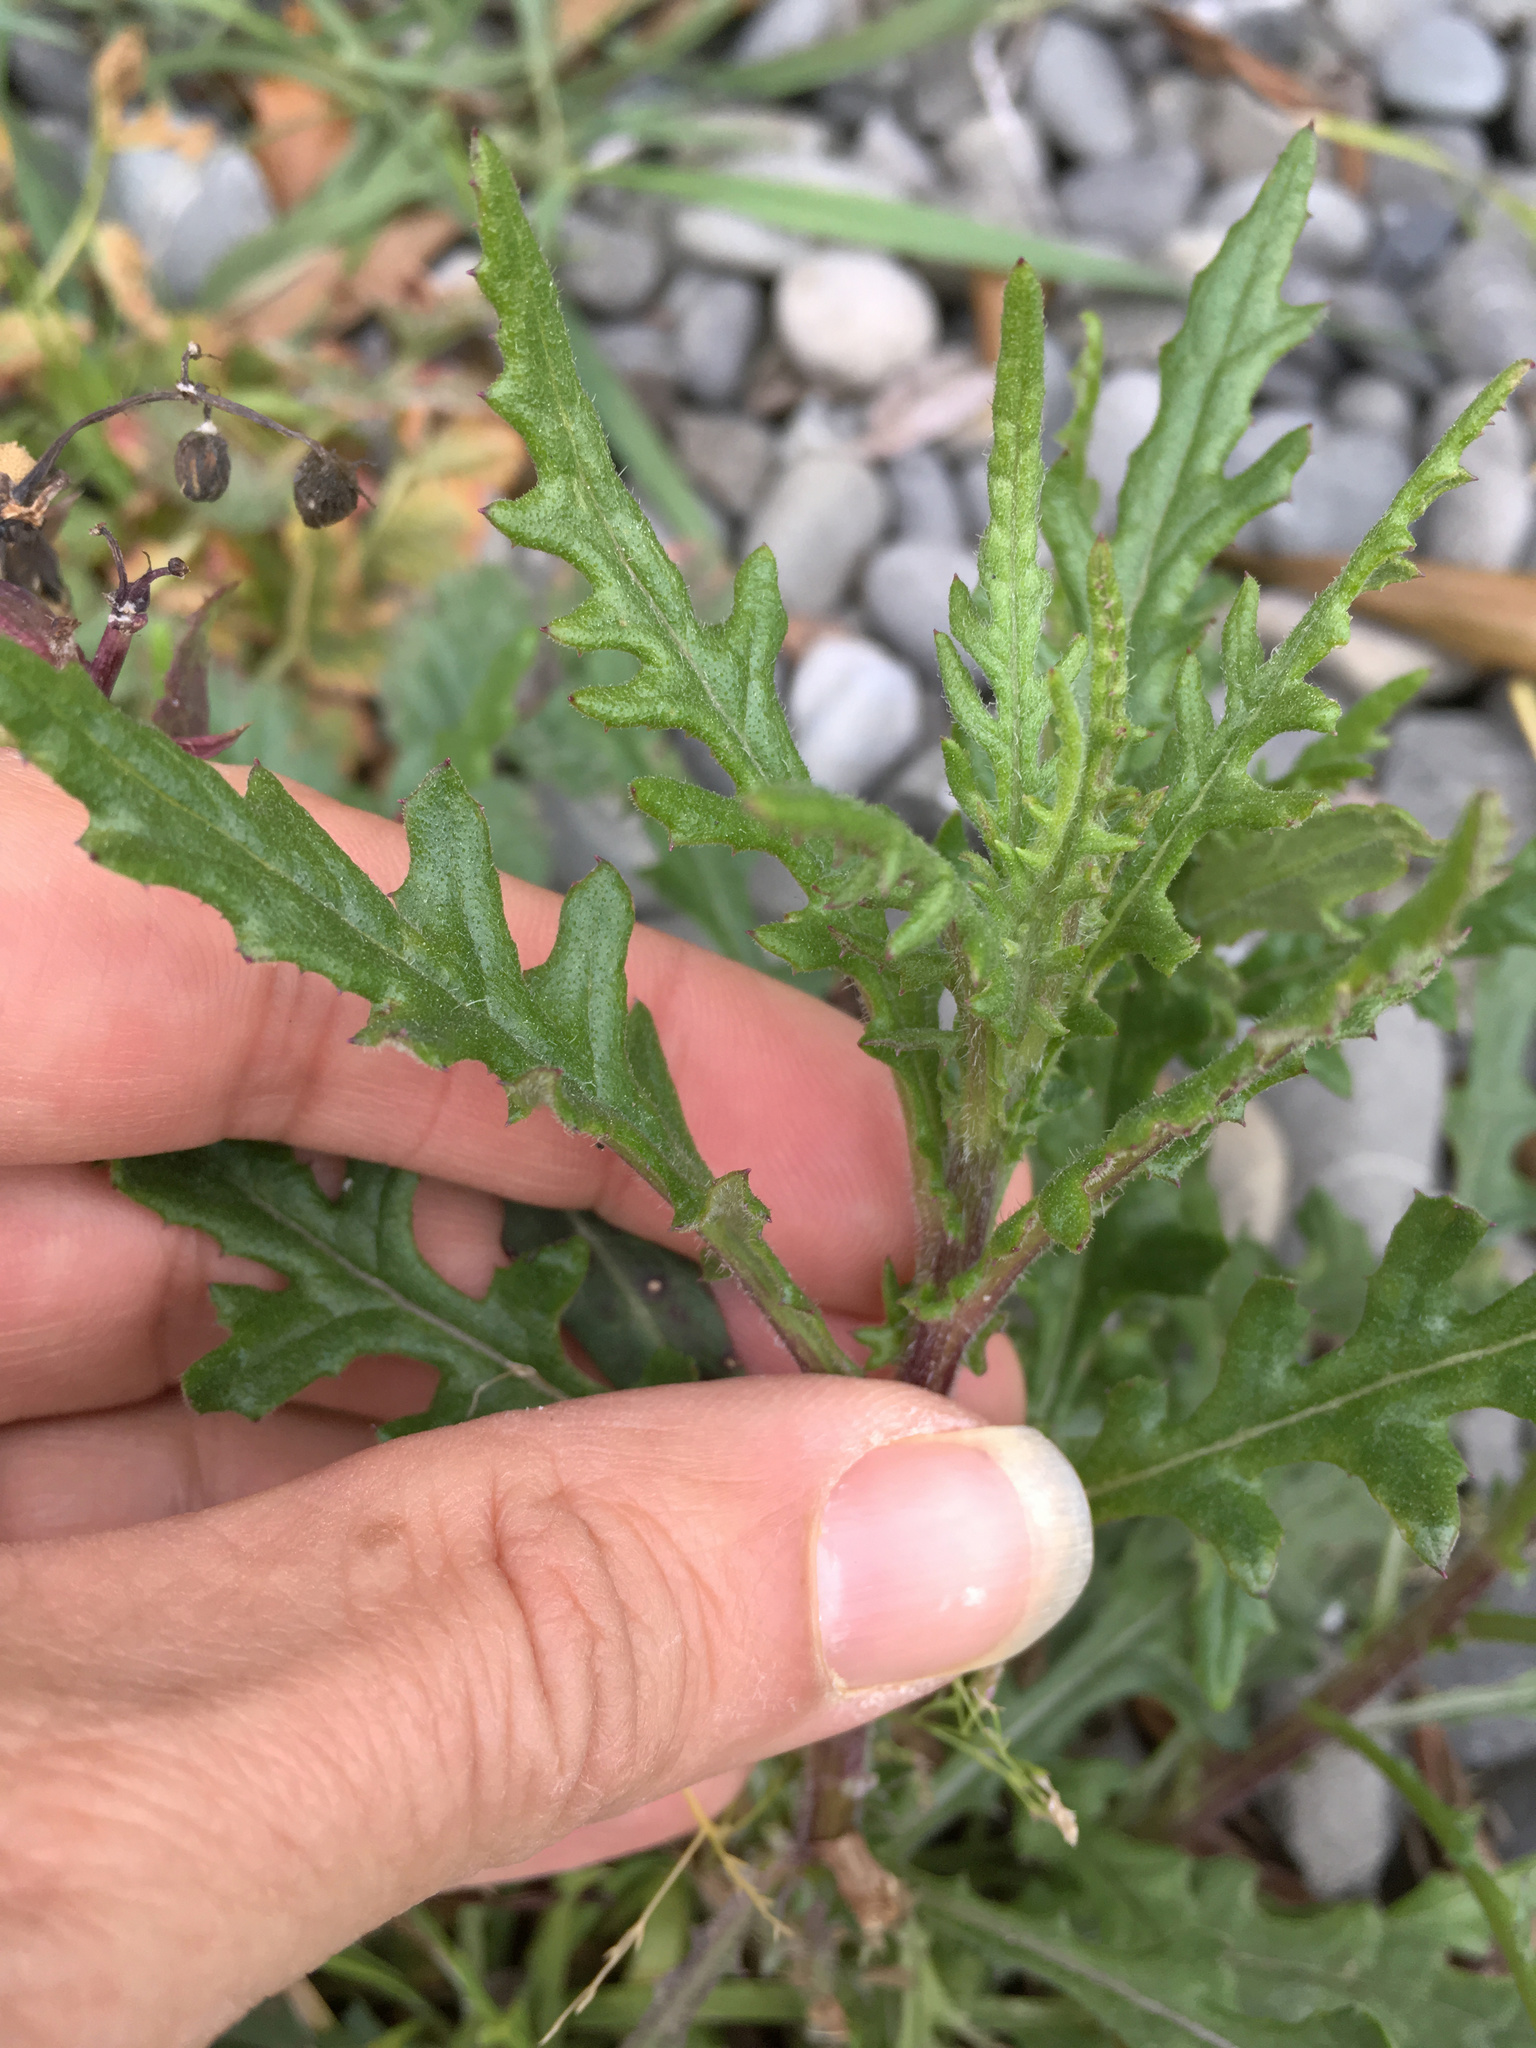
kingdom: Plantae
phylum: Tracheophyta
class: Magnoliopsida
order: Asterales
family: Asteraceae
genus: Senecio
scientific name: Senecio hispidulus
